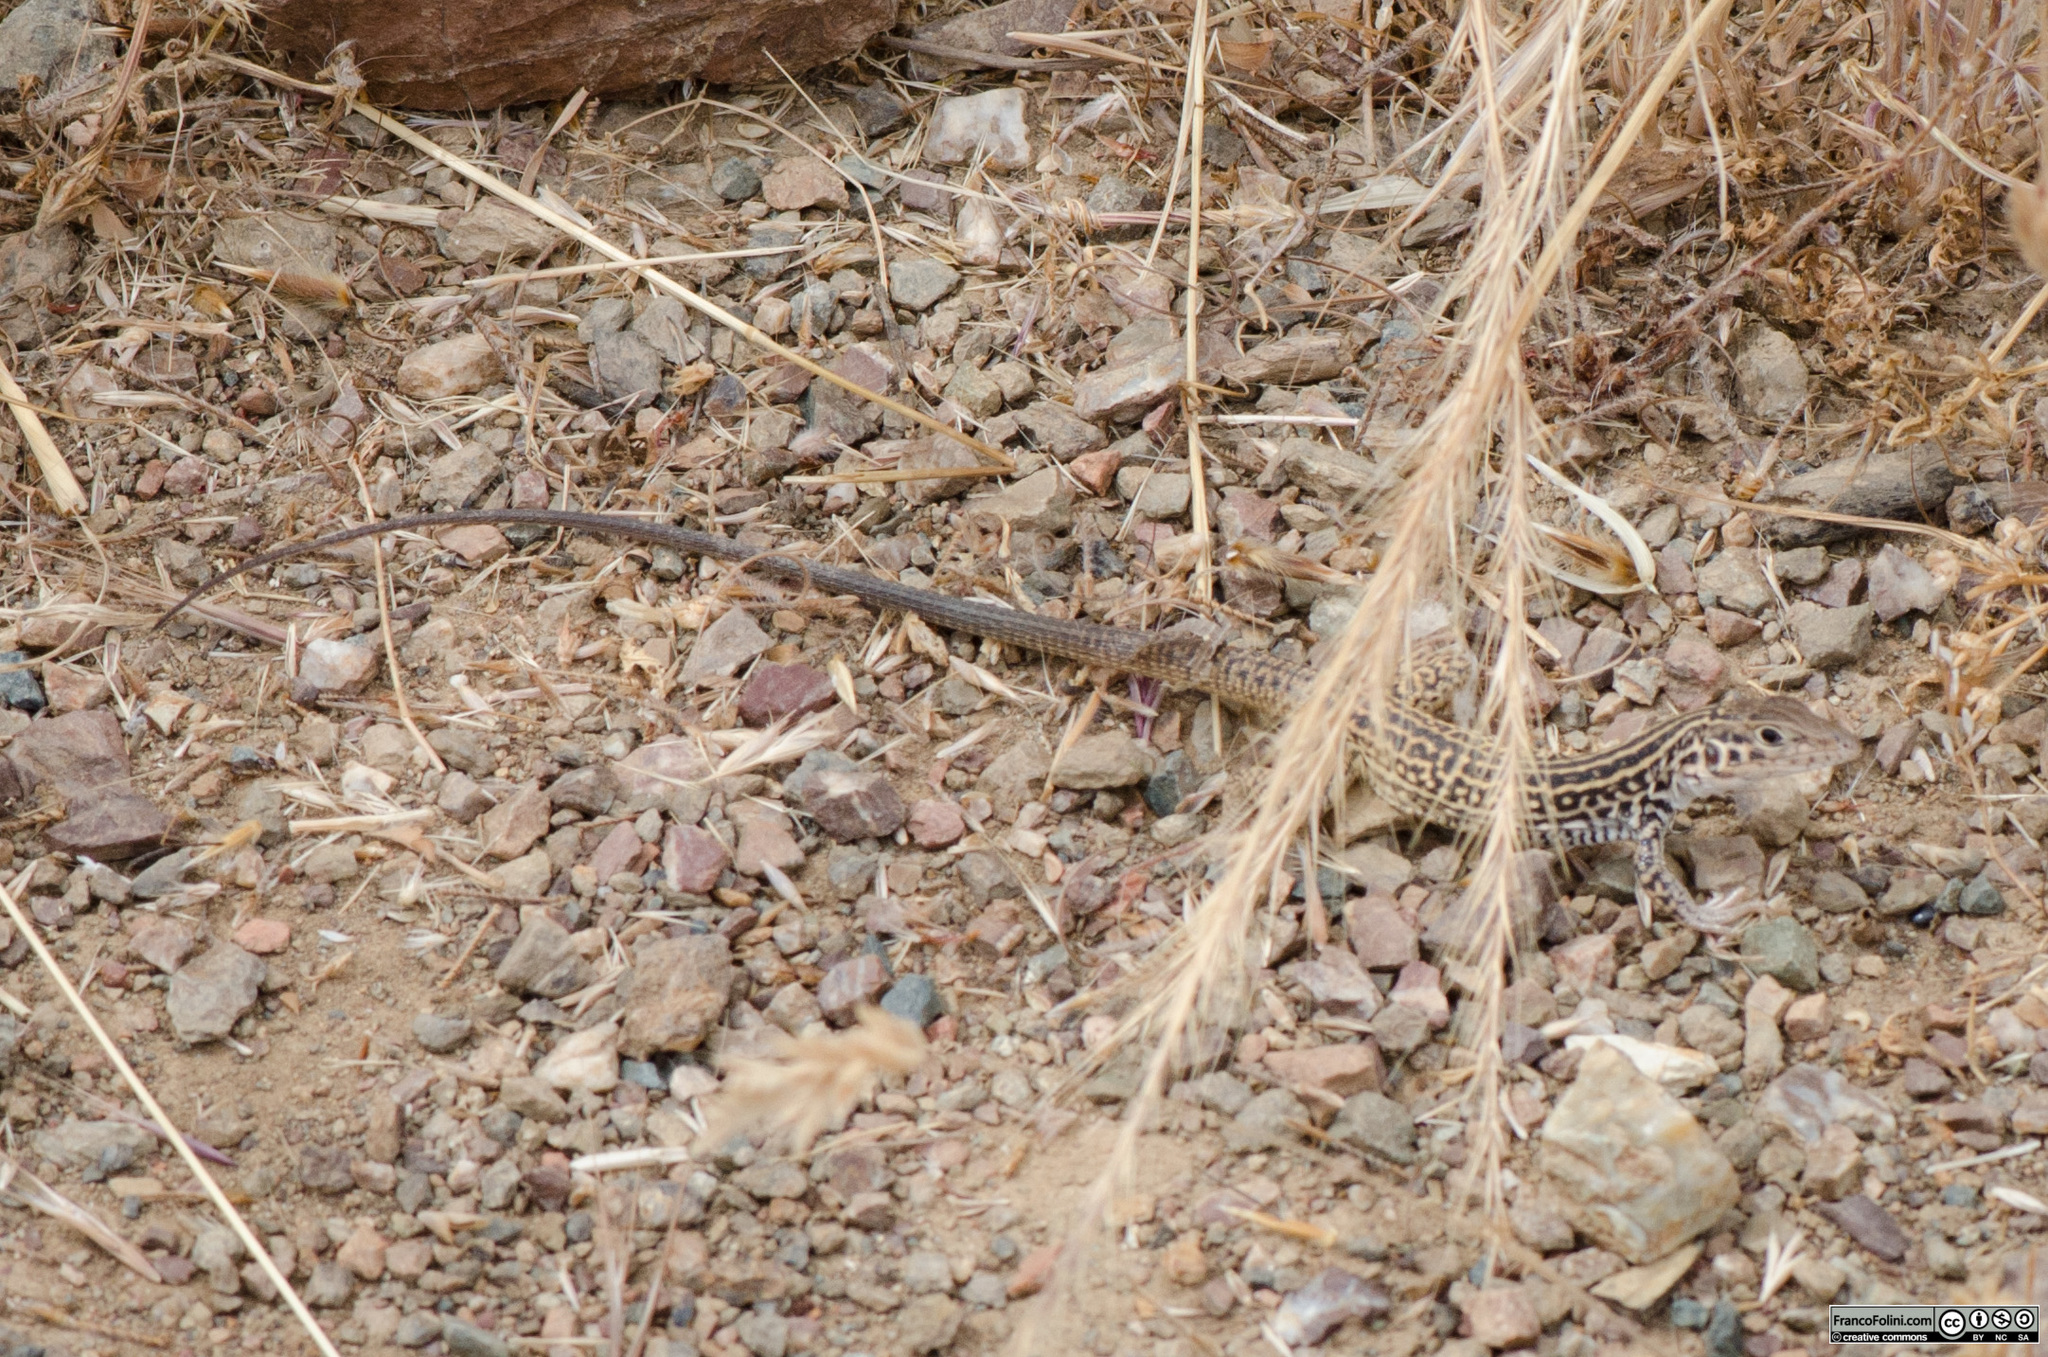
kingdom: Animalia
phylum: Chordata
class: Squamata
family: Teiidae
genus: Aspidoscelis
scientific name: Aspidoscelis tigris
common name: Tiger whiptail
